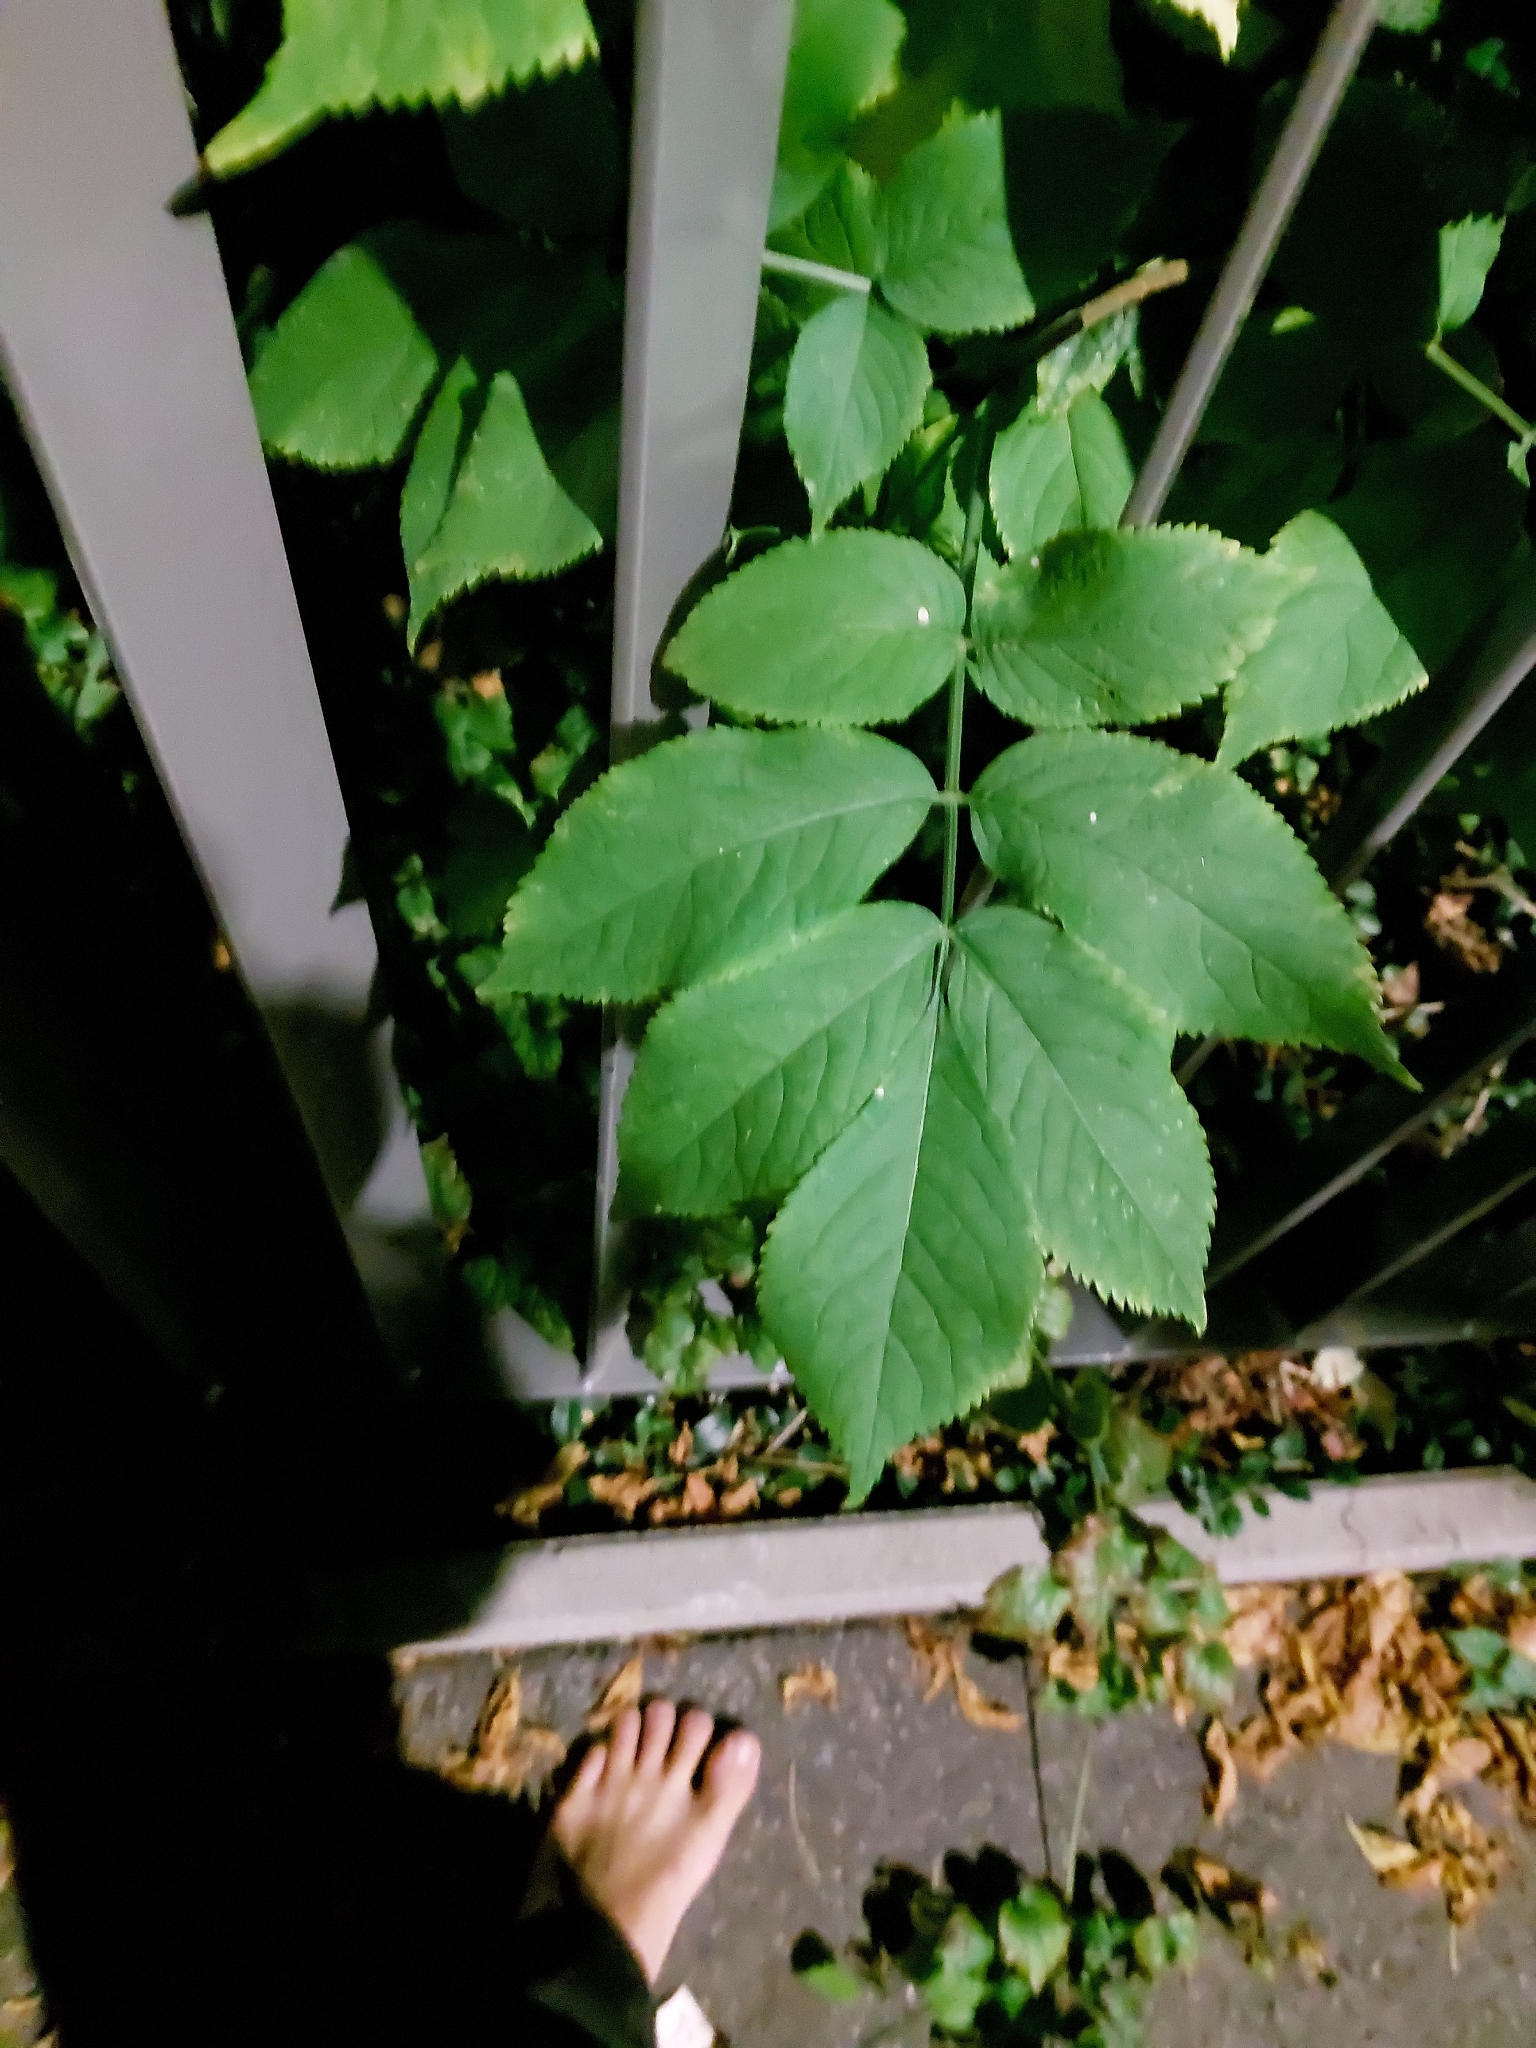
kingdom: Plantae
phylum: Tracheophyta
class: Magnoliopsida
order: Dipsacales
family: Viburnaceae
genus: Sambucus
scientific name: Sambucus nigra
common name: Elder
